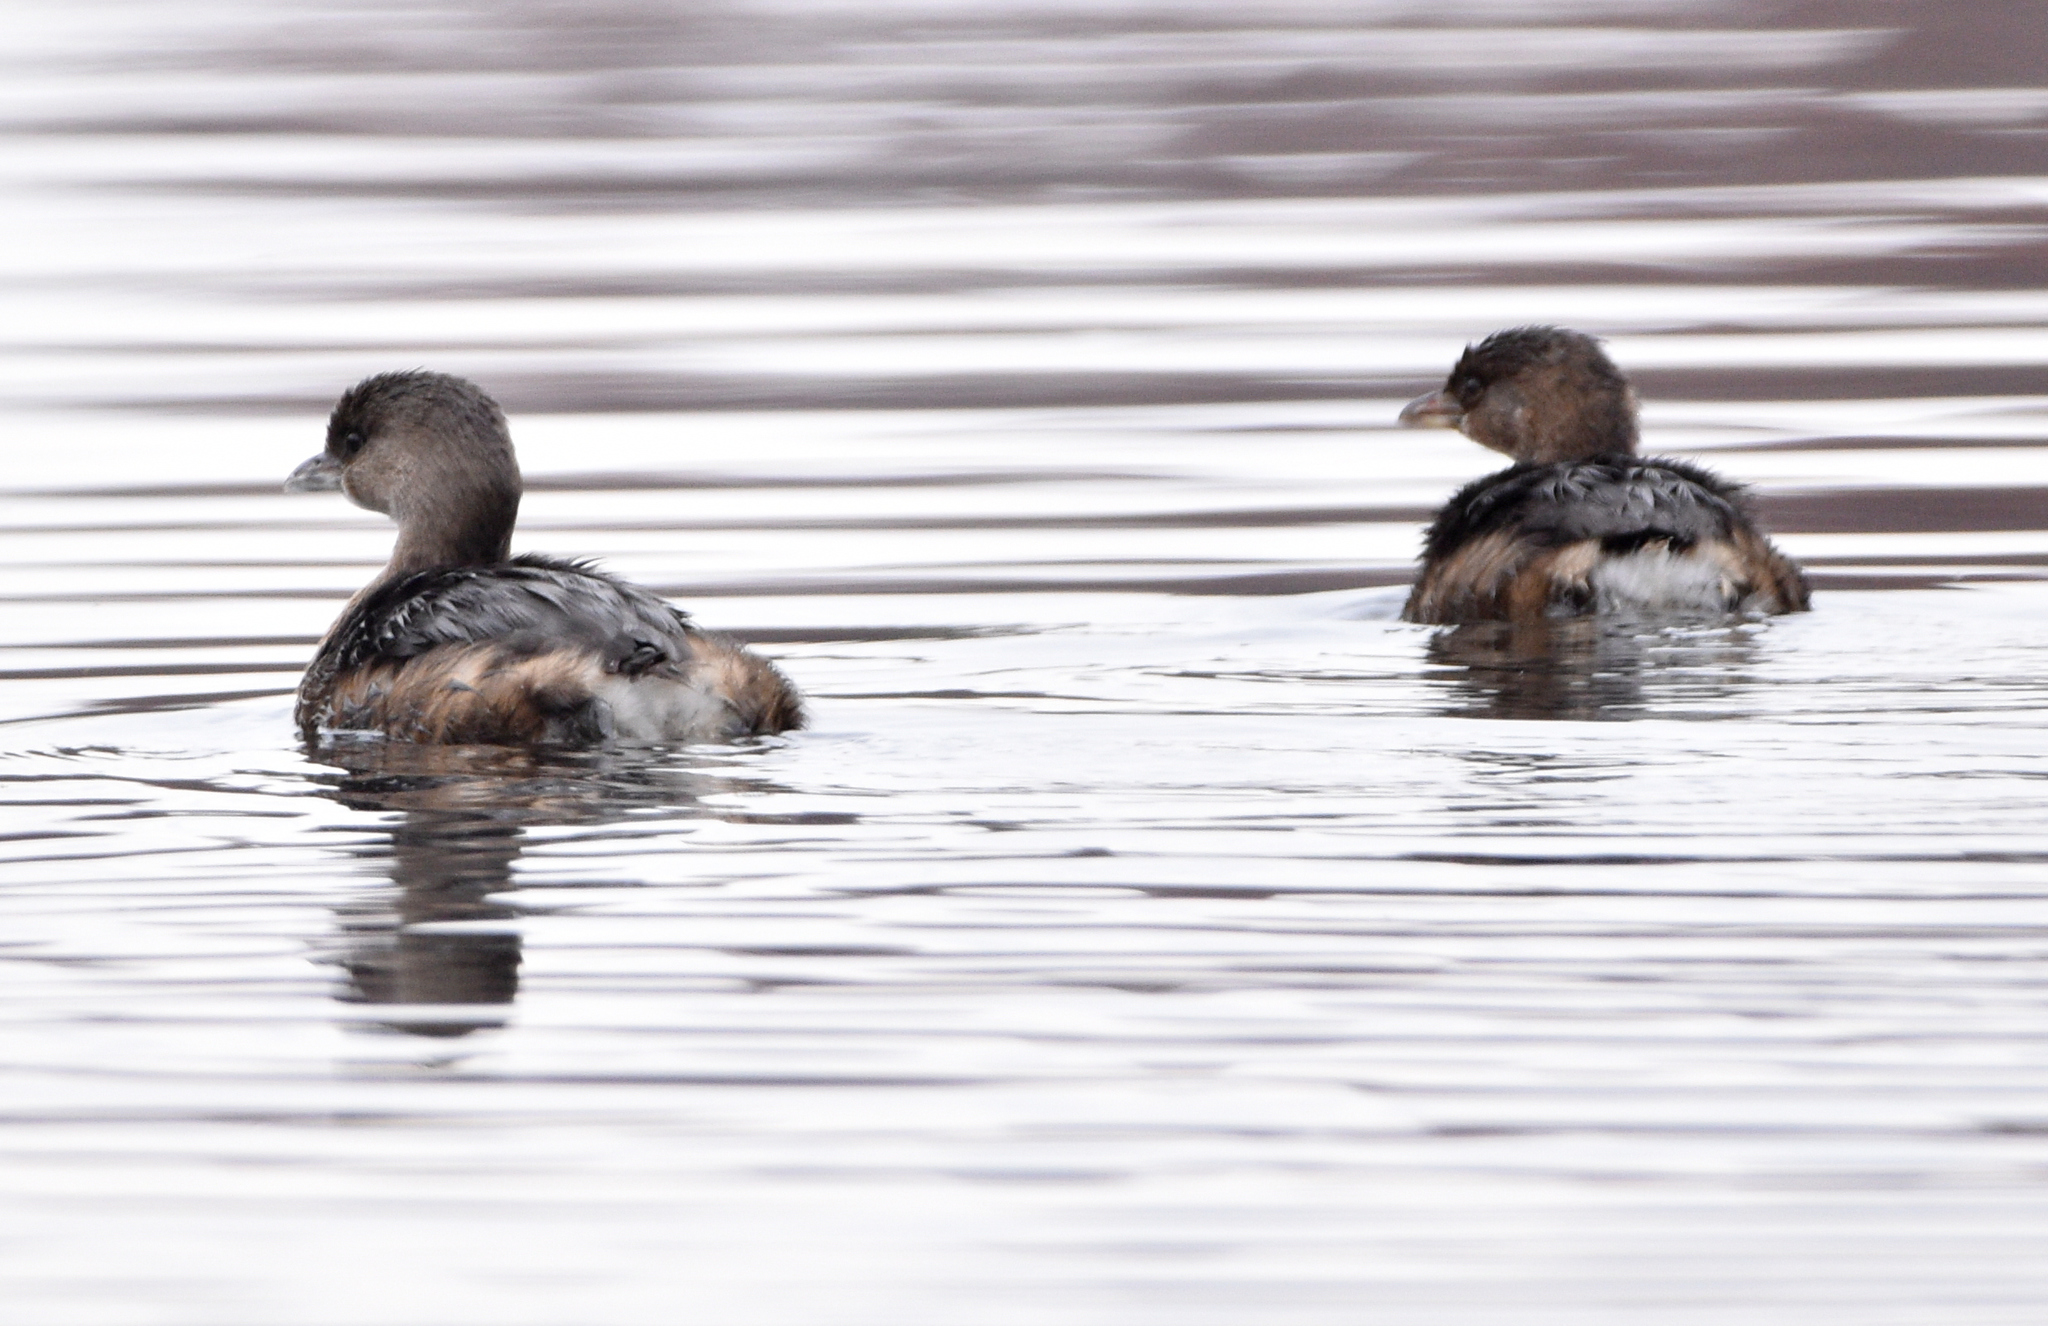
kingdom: Animalia
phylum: Chordata
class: Aves
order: Podicipediformes
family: Podicipedidae
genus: Podilymbus
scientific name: Podilymbus podiceps
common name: Pied-billed grebe
